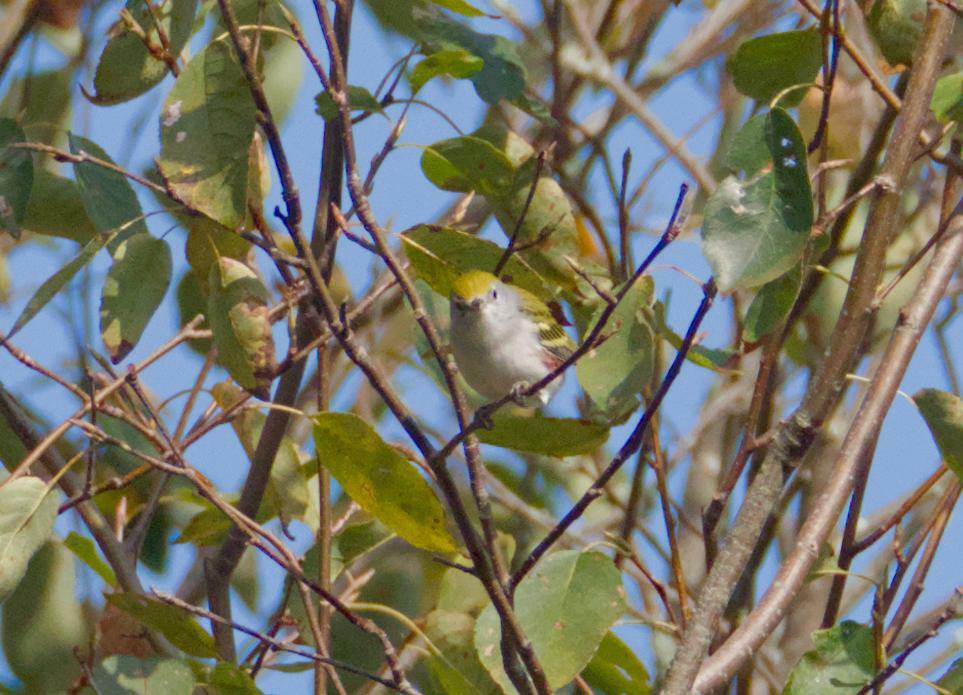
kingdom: Animalia
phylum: Chordata
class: Aves
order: Passeriformes
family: Parulidae
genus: Setophaga
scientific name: Setophaga pensylvanica
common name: Chestnut-sided warbler
